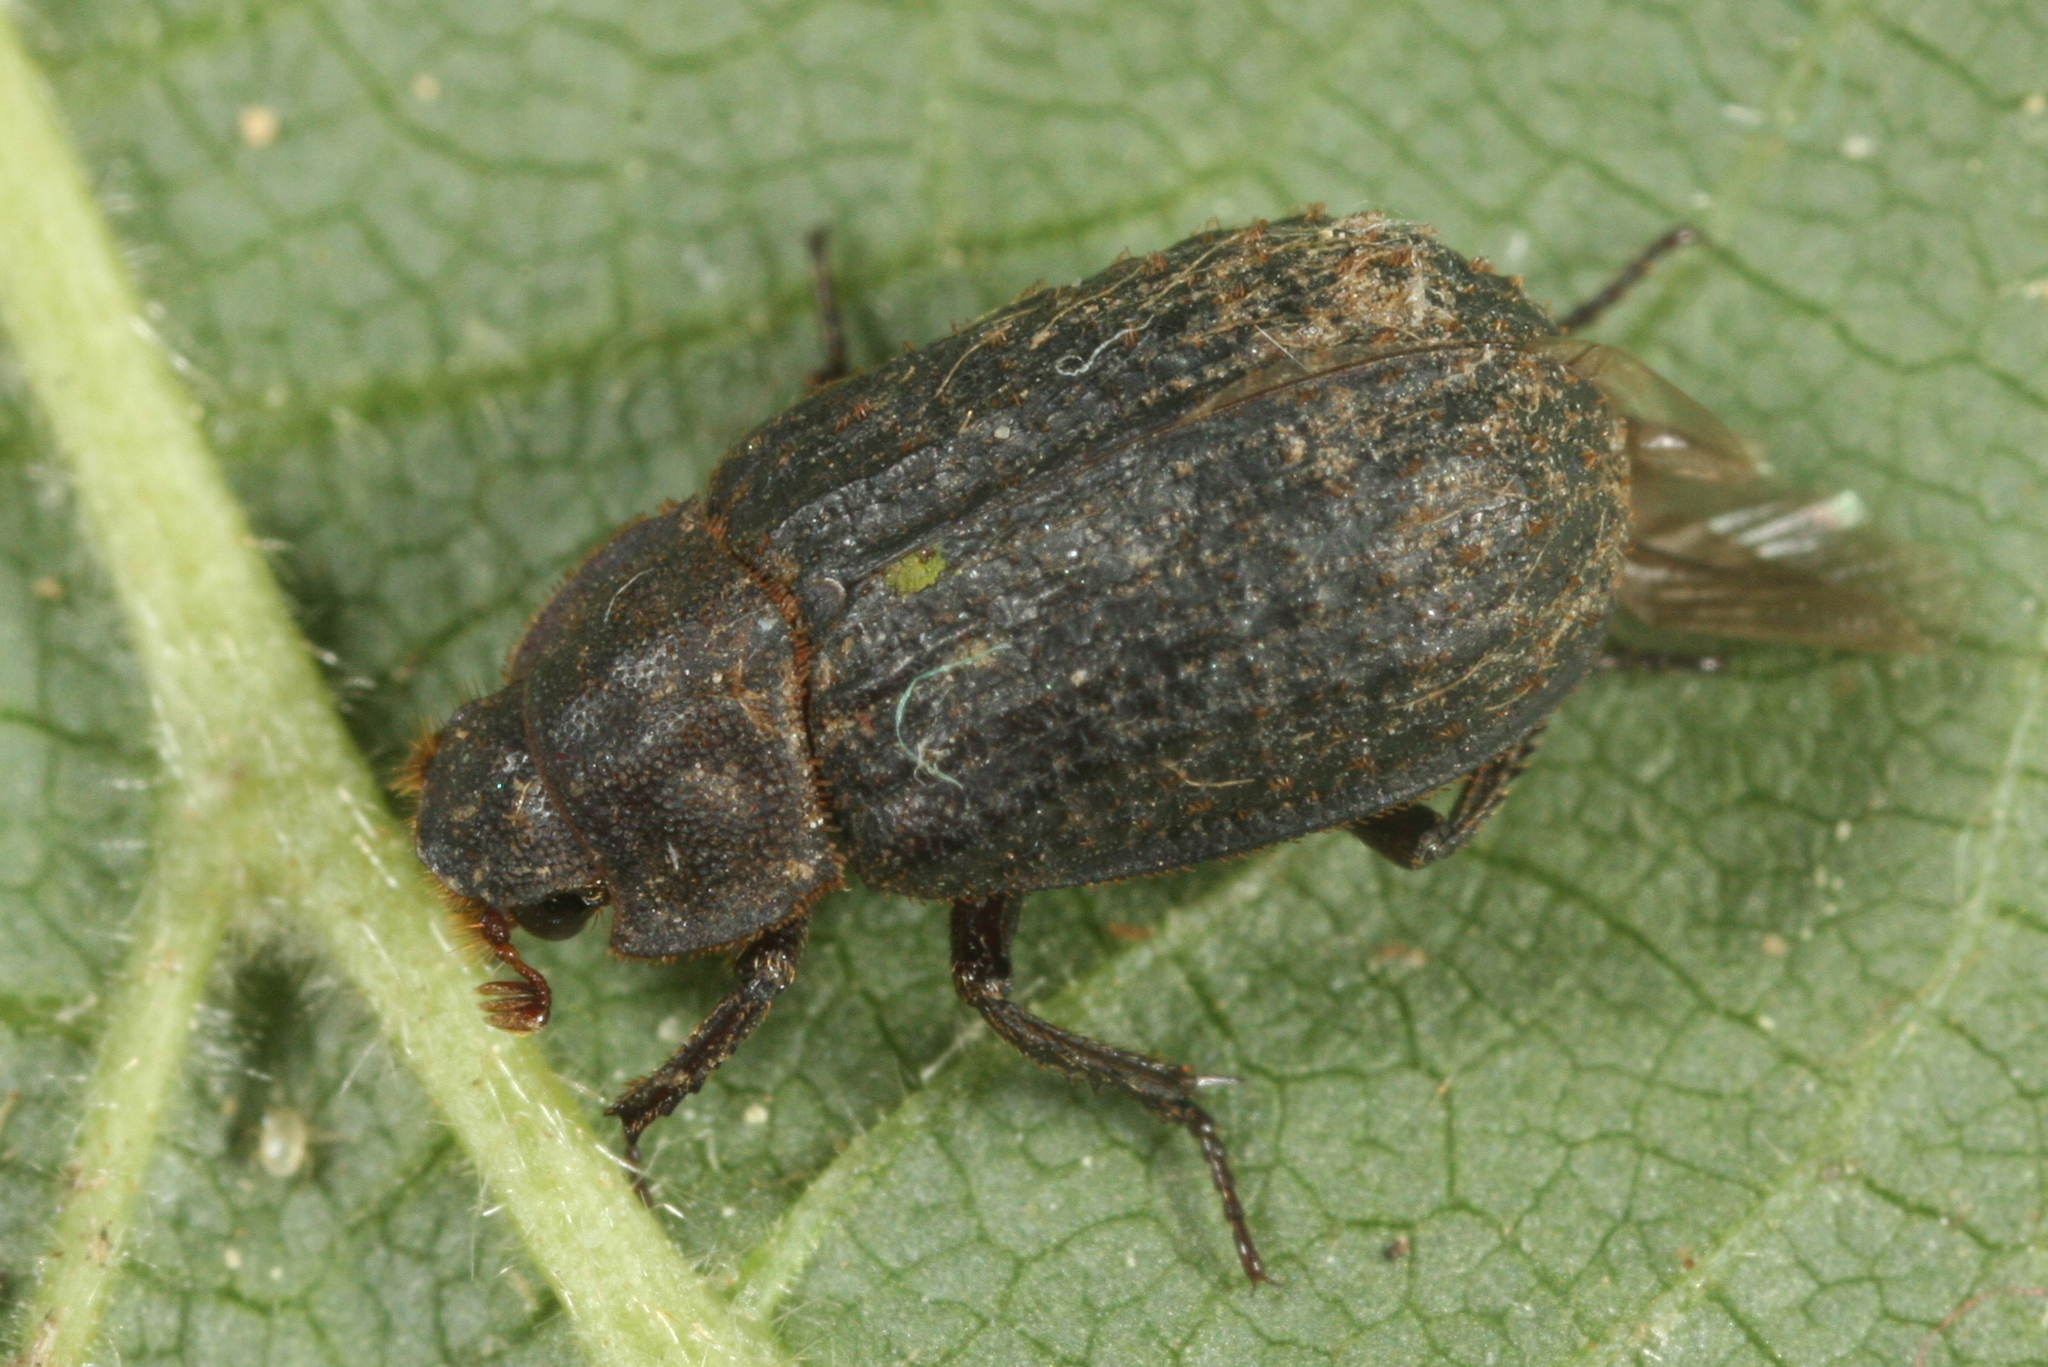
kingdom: Animalia
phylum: Arthropoda
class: Insecta
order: Coleoptera
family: Trogidae
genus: Trox
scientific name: Trox scaber
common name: Hide beetle
